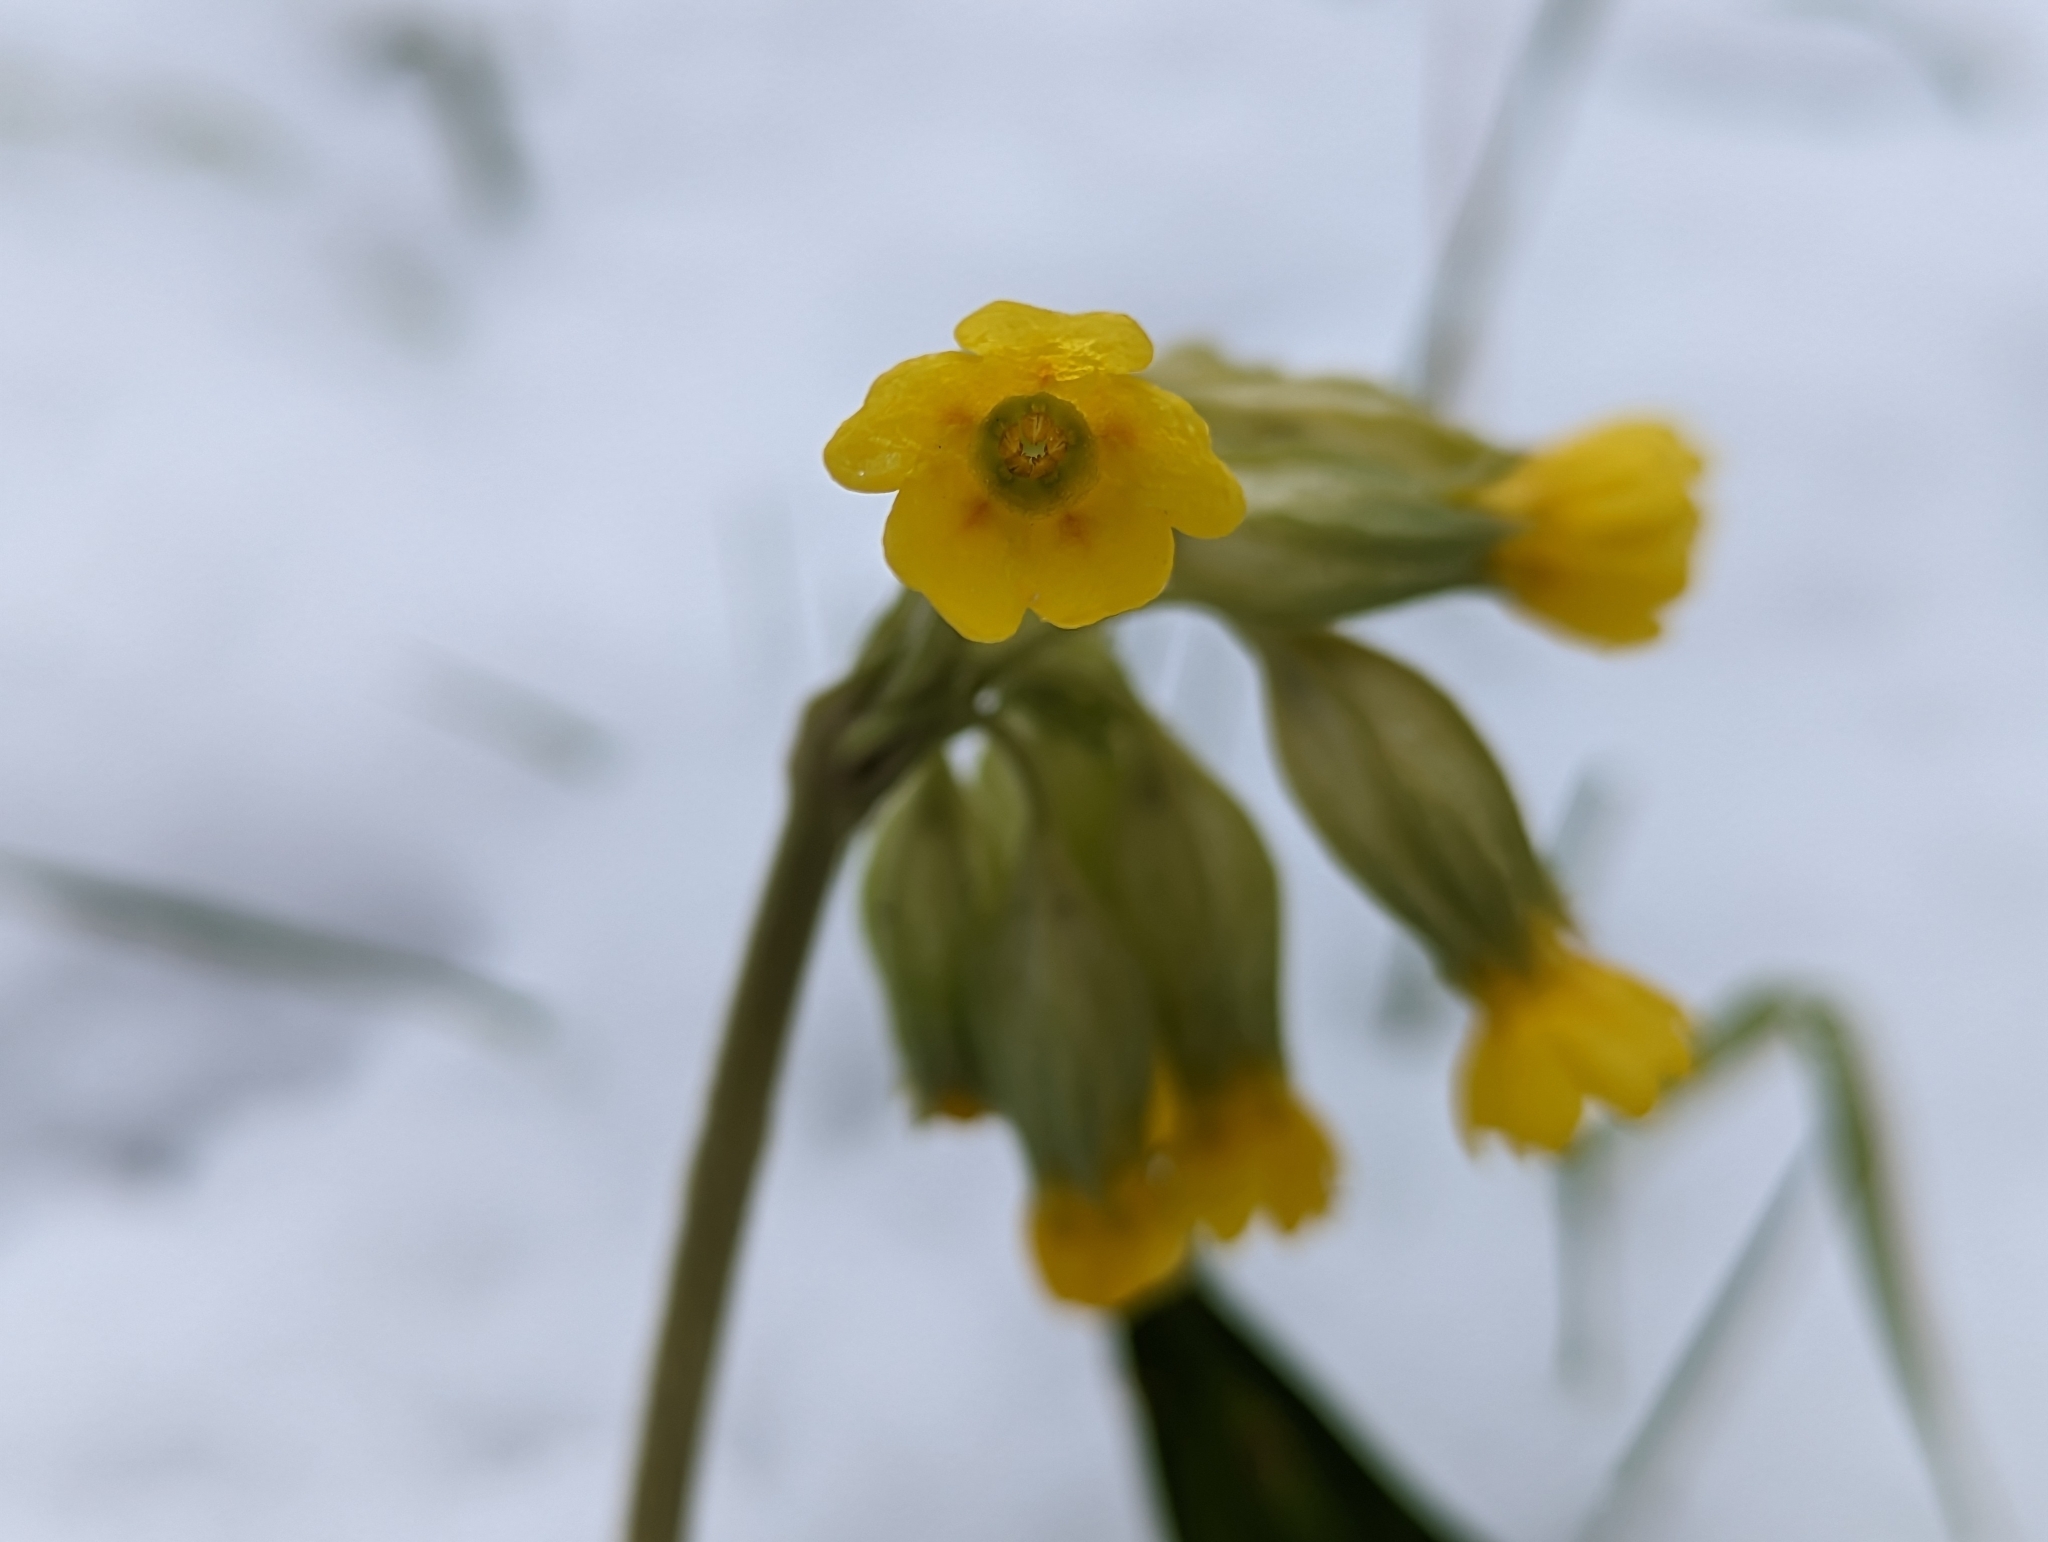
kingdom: Plantae
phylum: Tracheophyta
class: Magnoliopsida
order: Ericales
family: Primulaceae
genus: Primula
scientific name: Primula veris
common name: Cowslip
